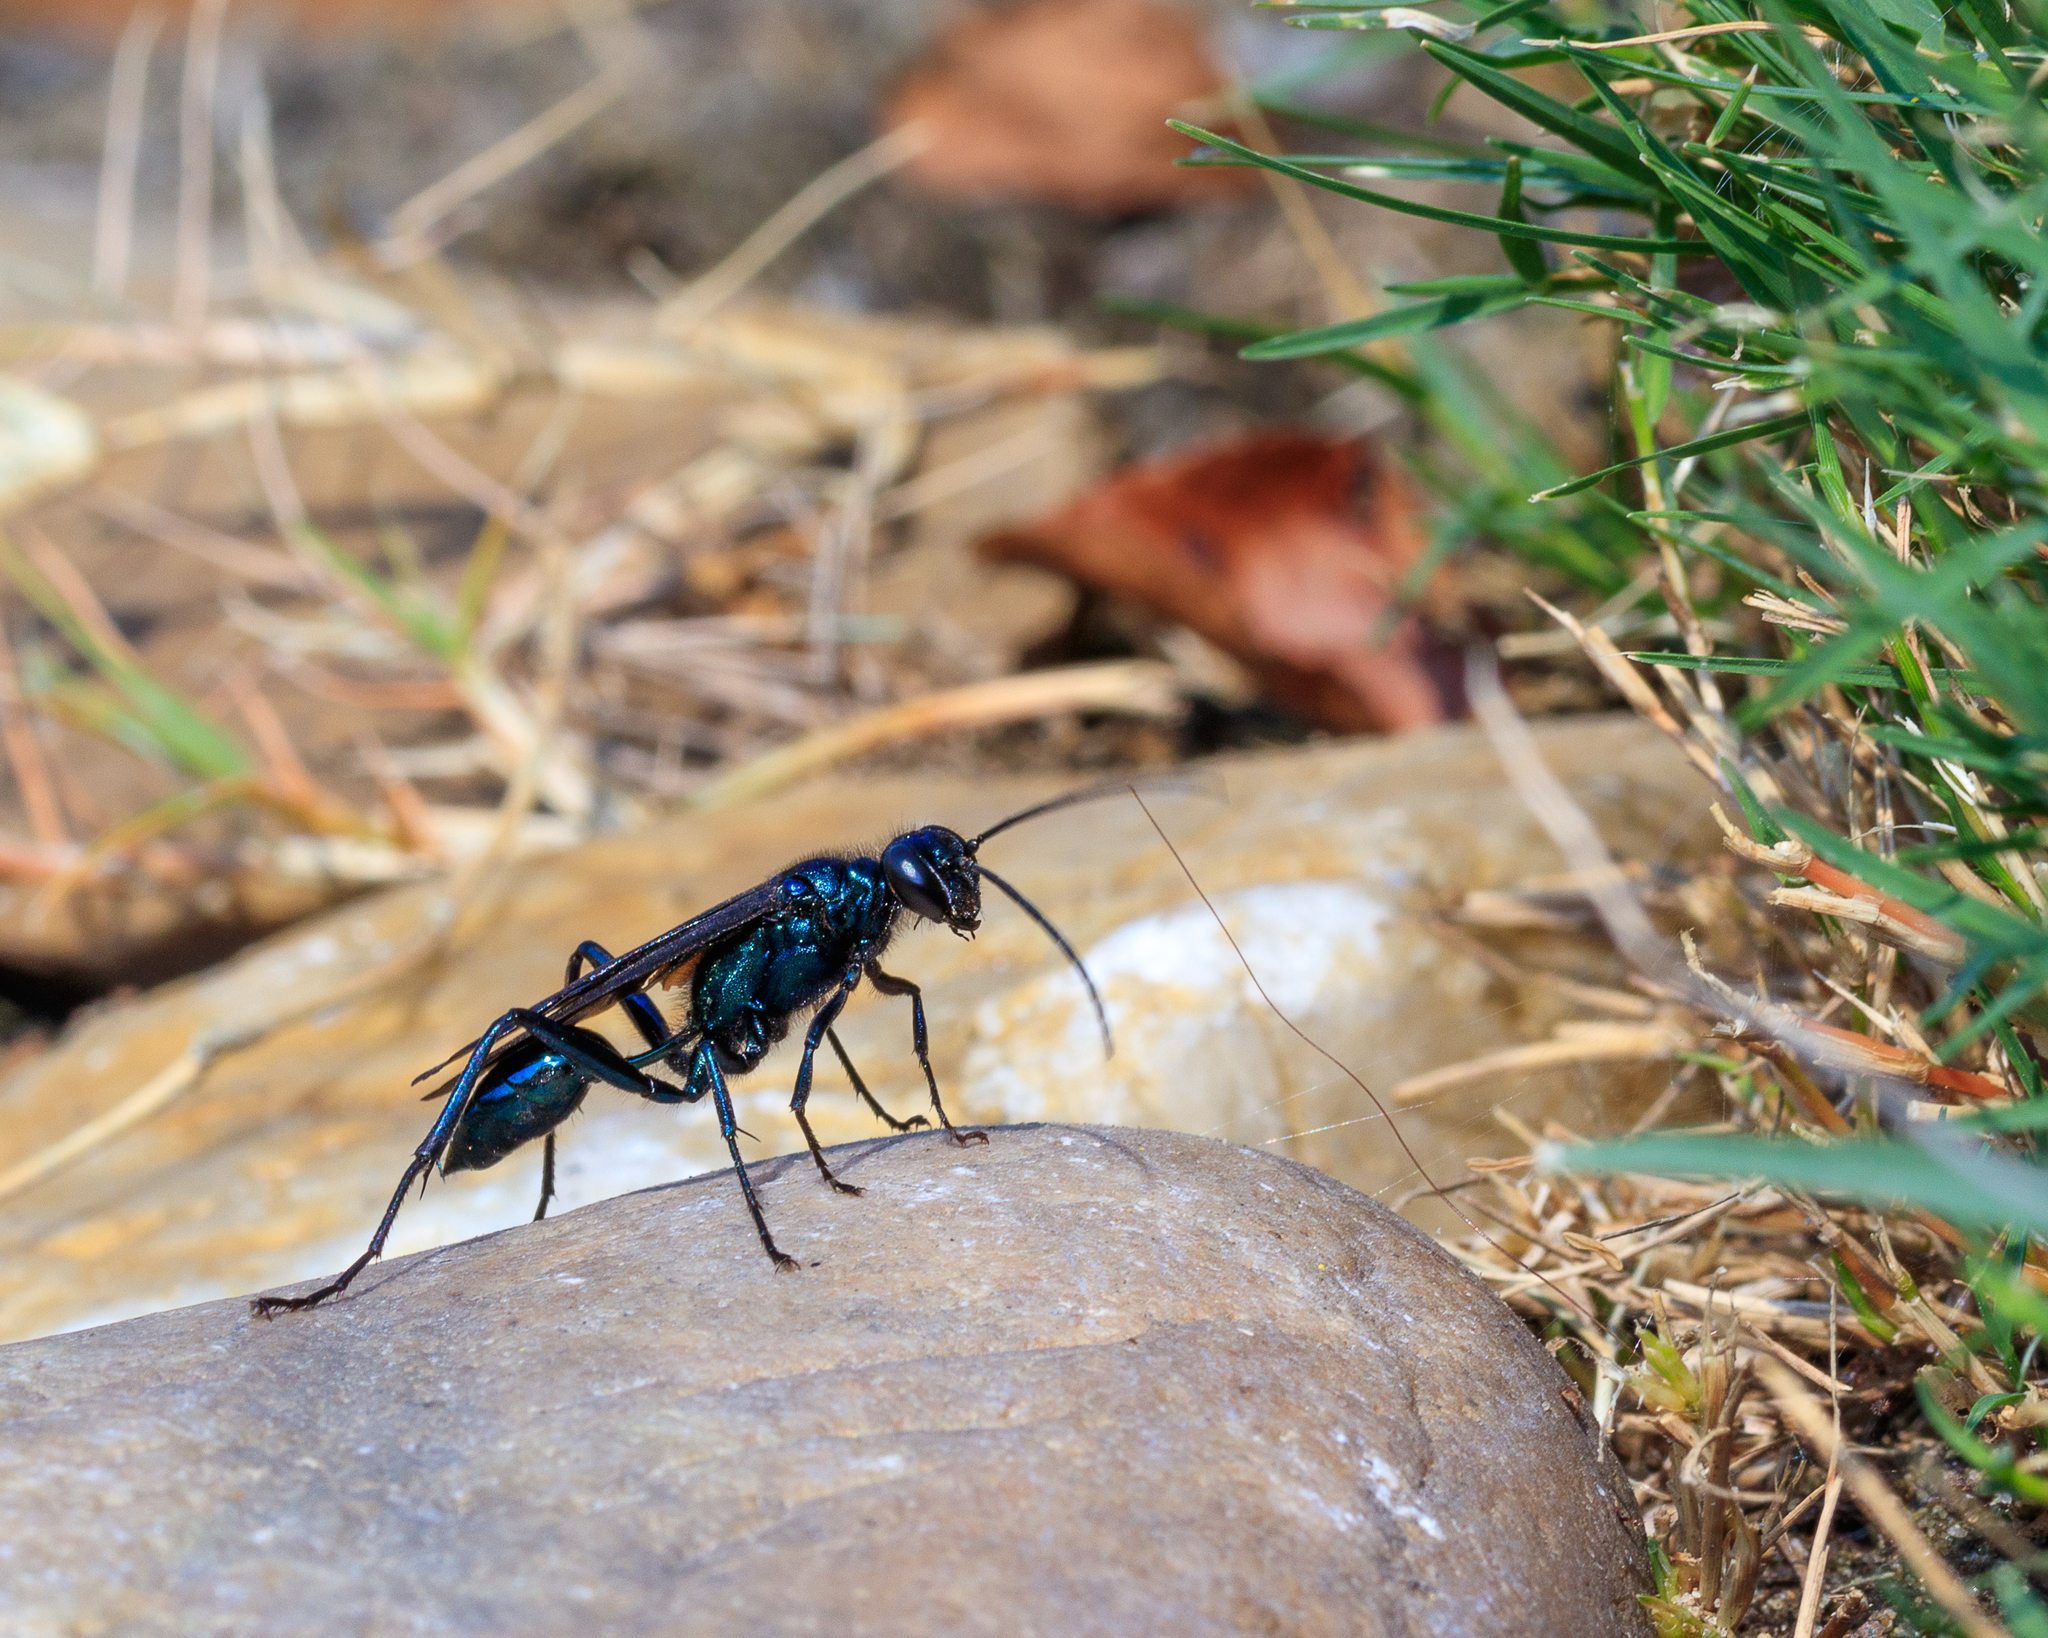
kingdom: Animalia
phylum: Arthropoda
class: Insecta
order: Hymenoptera
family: Sphecidae
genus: Chalybion
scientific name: Chalybion californicum
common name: Mud dauber
